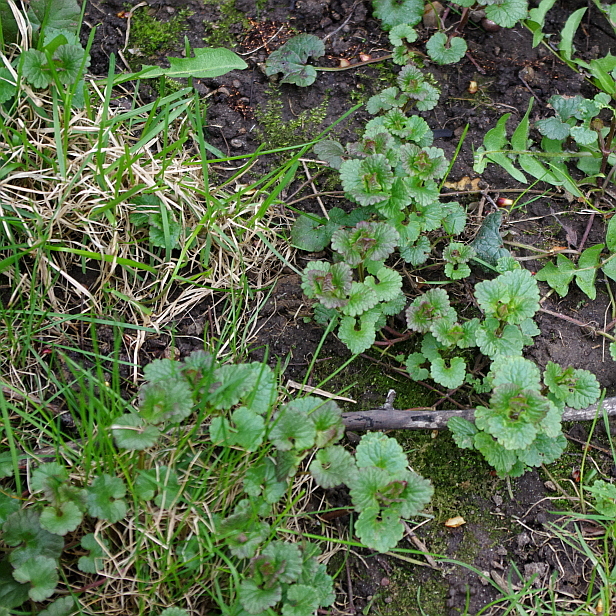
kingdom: Plantae
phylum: Tracheophyta
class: Magnoliopsida
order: Lamiales
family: Lamiaceae
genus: Glechoma
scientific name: Glechoma hederacea
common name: Ground ivy
